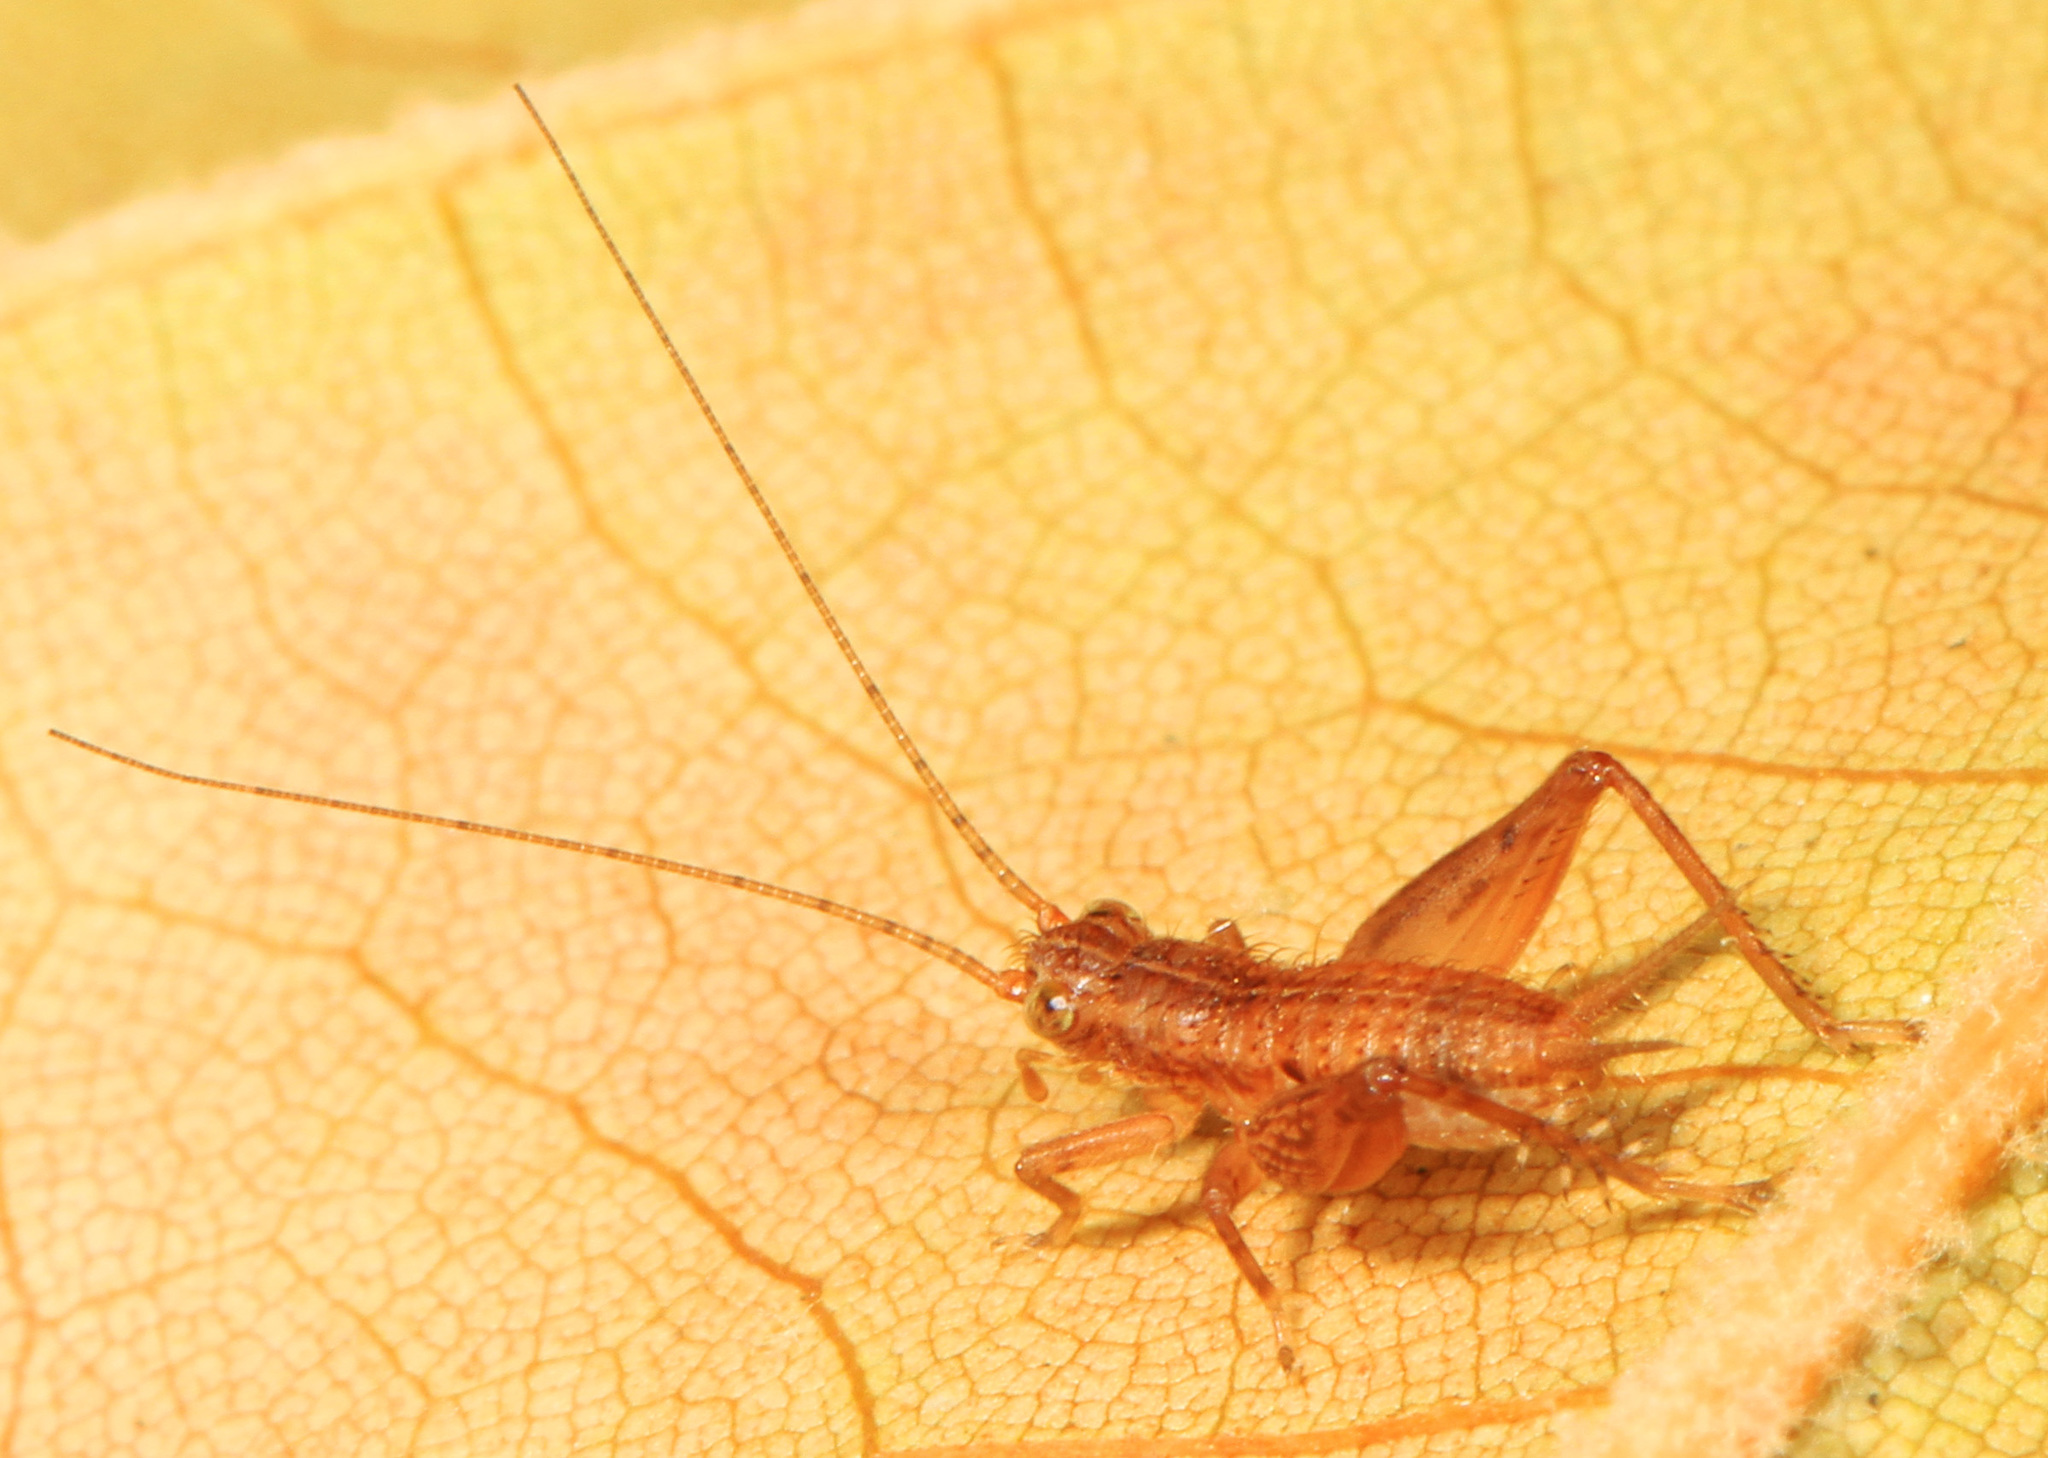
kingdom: Animalia
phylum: Arthropoda
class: Insecta
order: Orthoptera
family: Trigonidiidae
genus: Falcicula
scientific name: Falcicula hebardi
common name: Hebard's bush cricket
